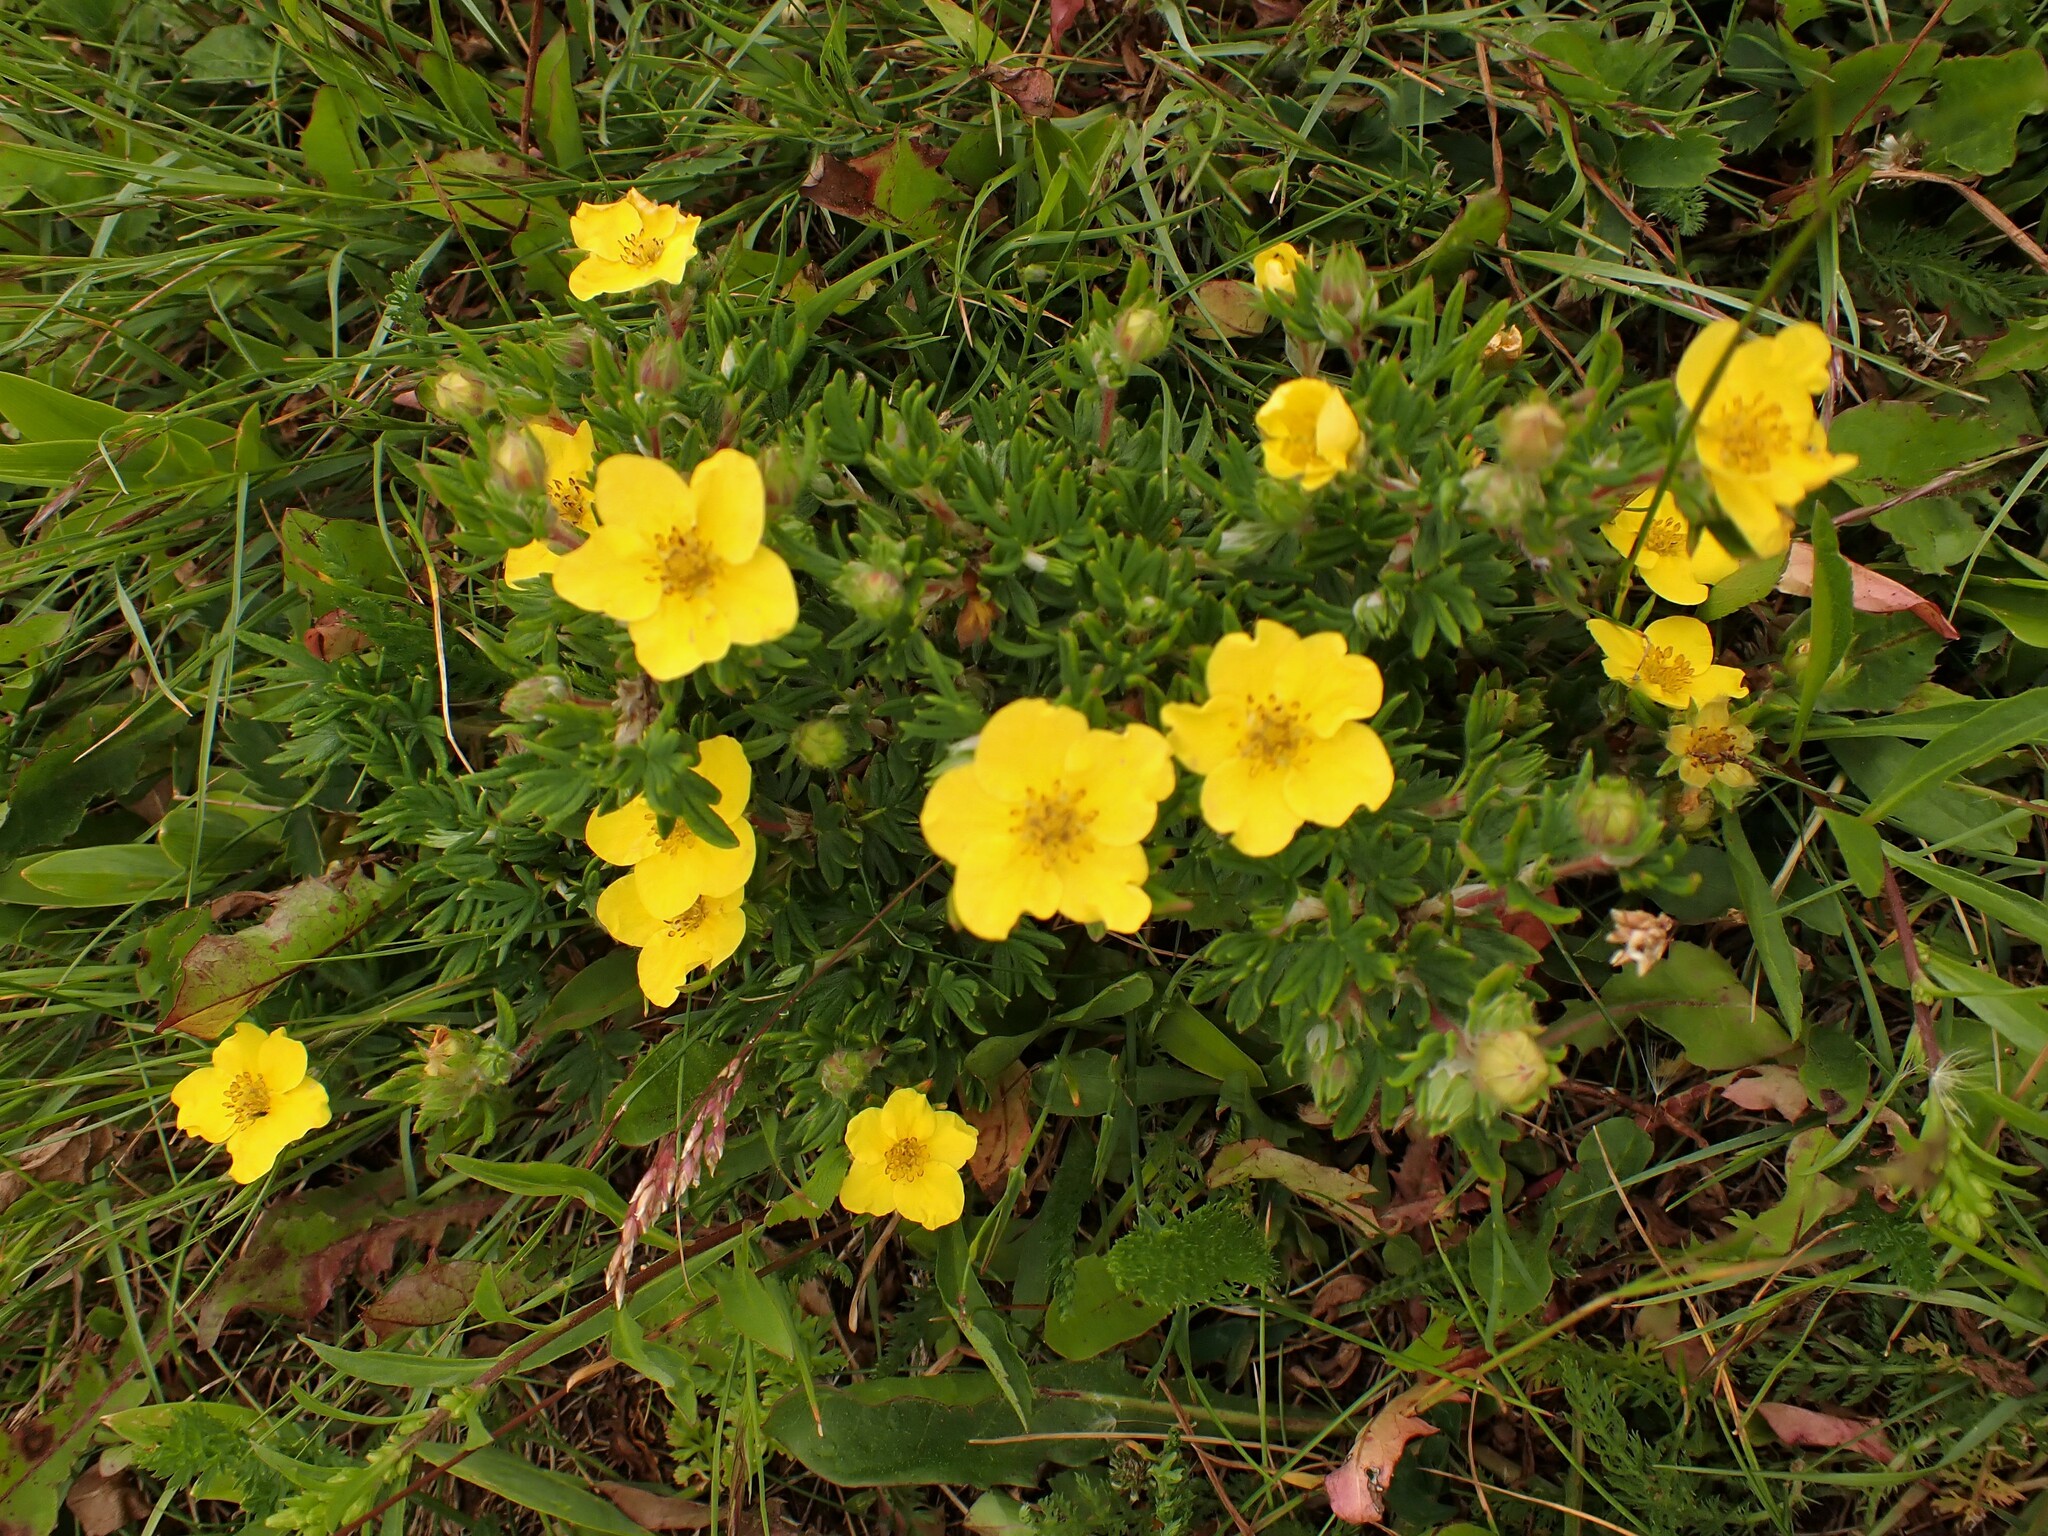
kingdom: Plantae
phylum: Tracheophyta
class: Magnoliopsida
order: Rosales
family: Rosaceae
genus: Dasiphora
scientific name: Dasiphora fruticosa
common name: Shrubby cinquefoil
